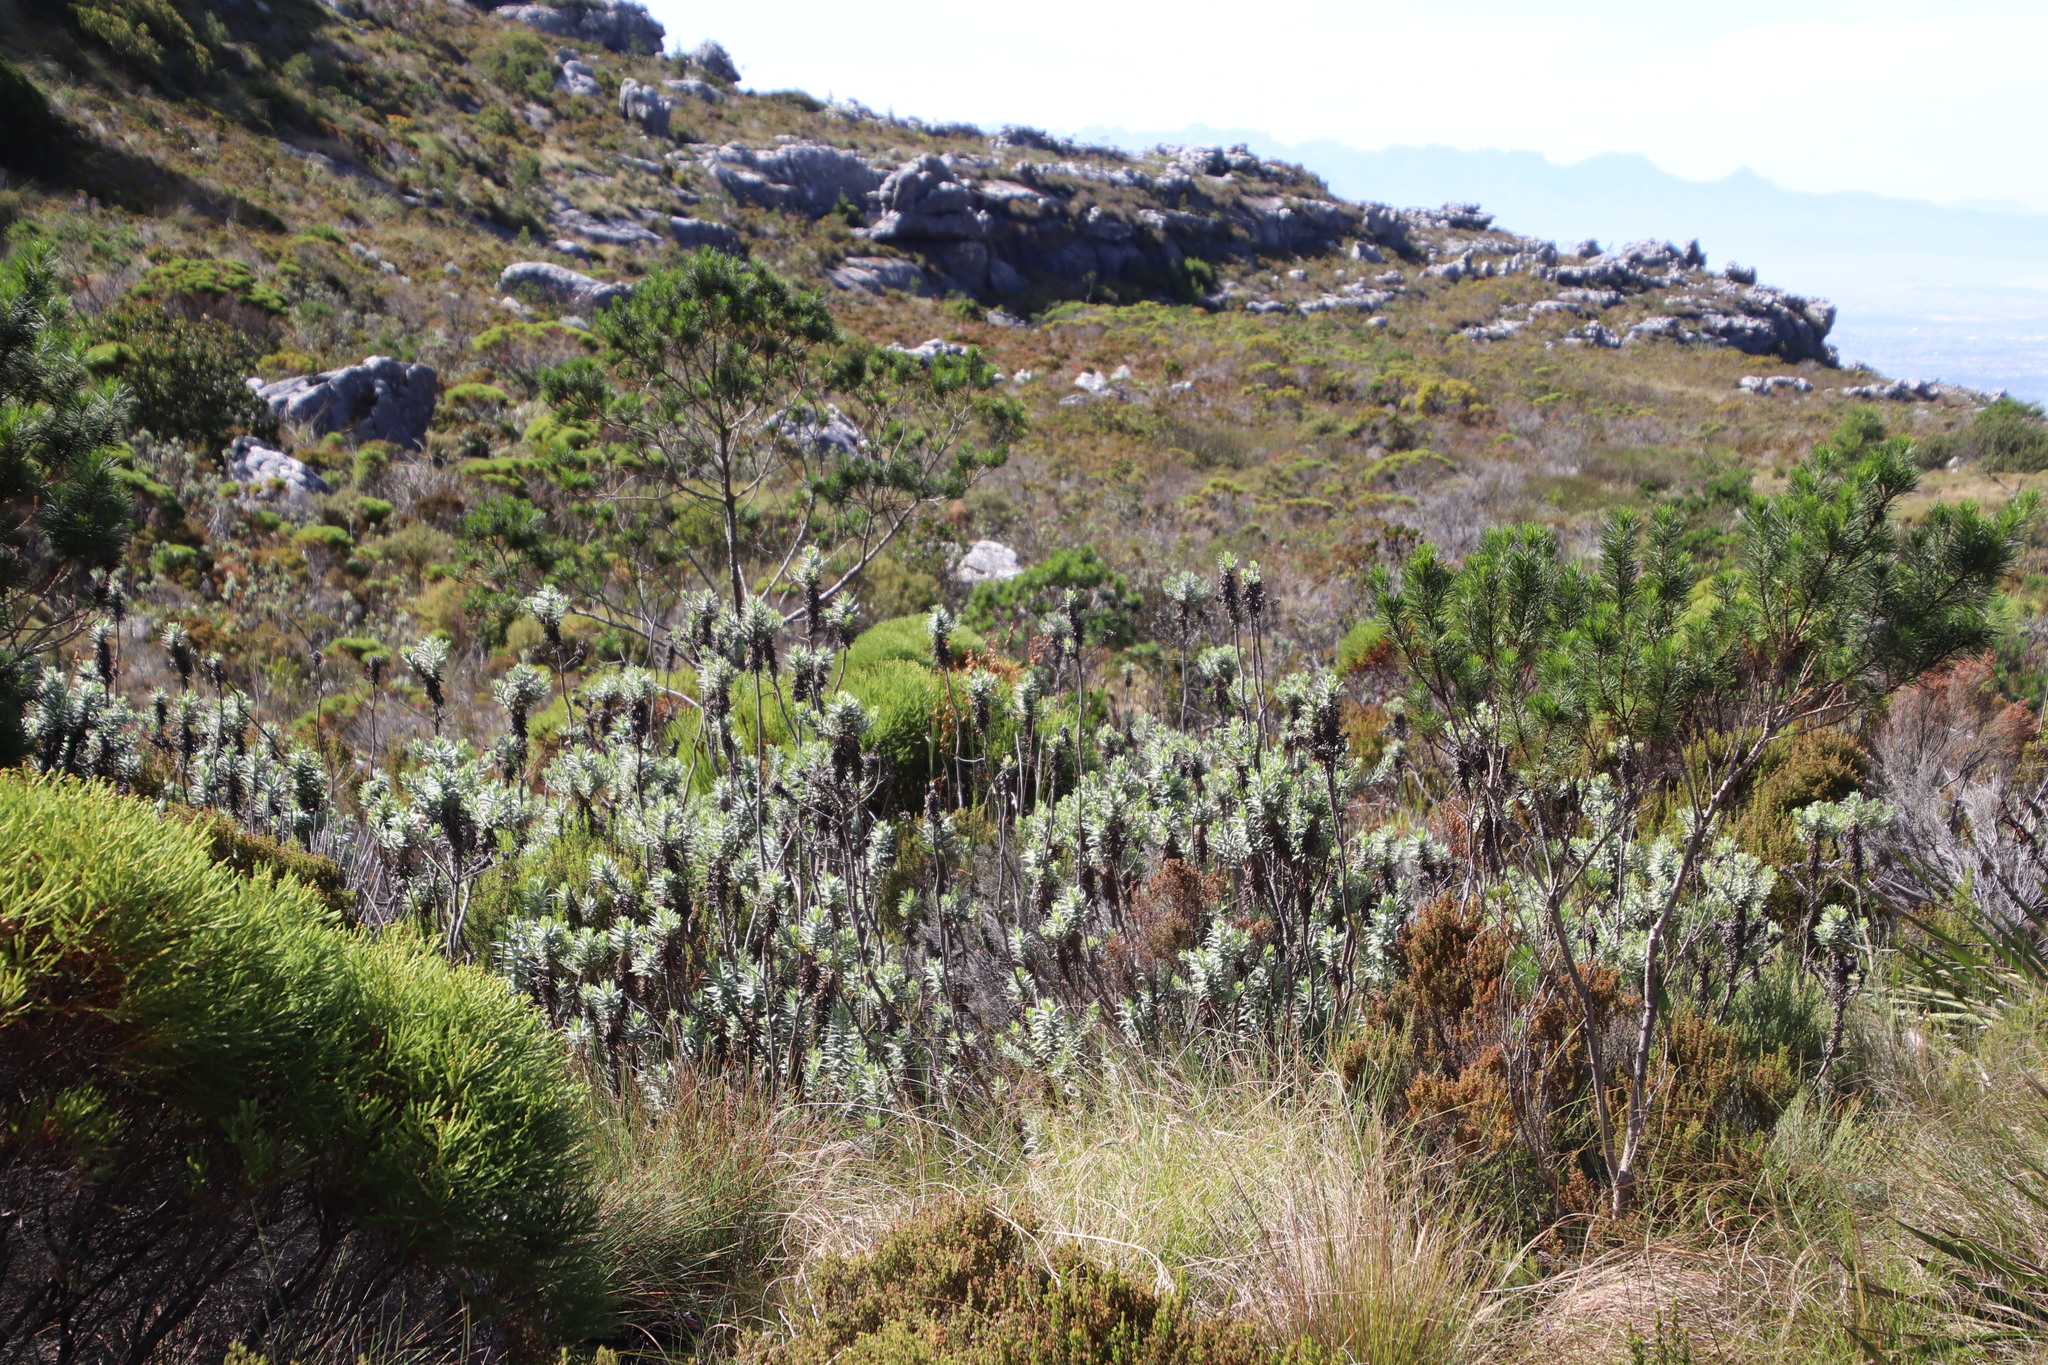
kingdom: Plantae
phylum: Tracheophyta
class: Magnoliopsida
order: Asterales
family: Asteraceae
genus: Osmitopsis
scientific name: Osmitopsis asteriscoides
